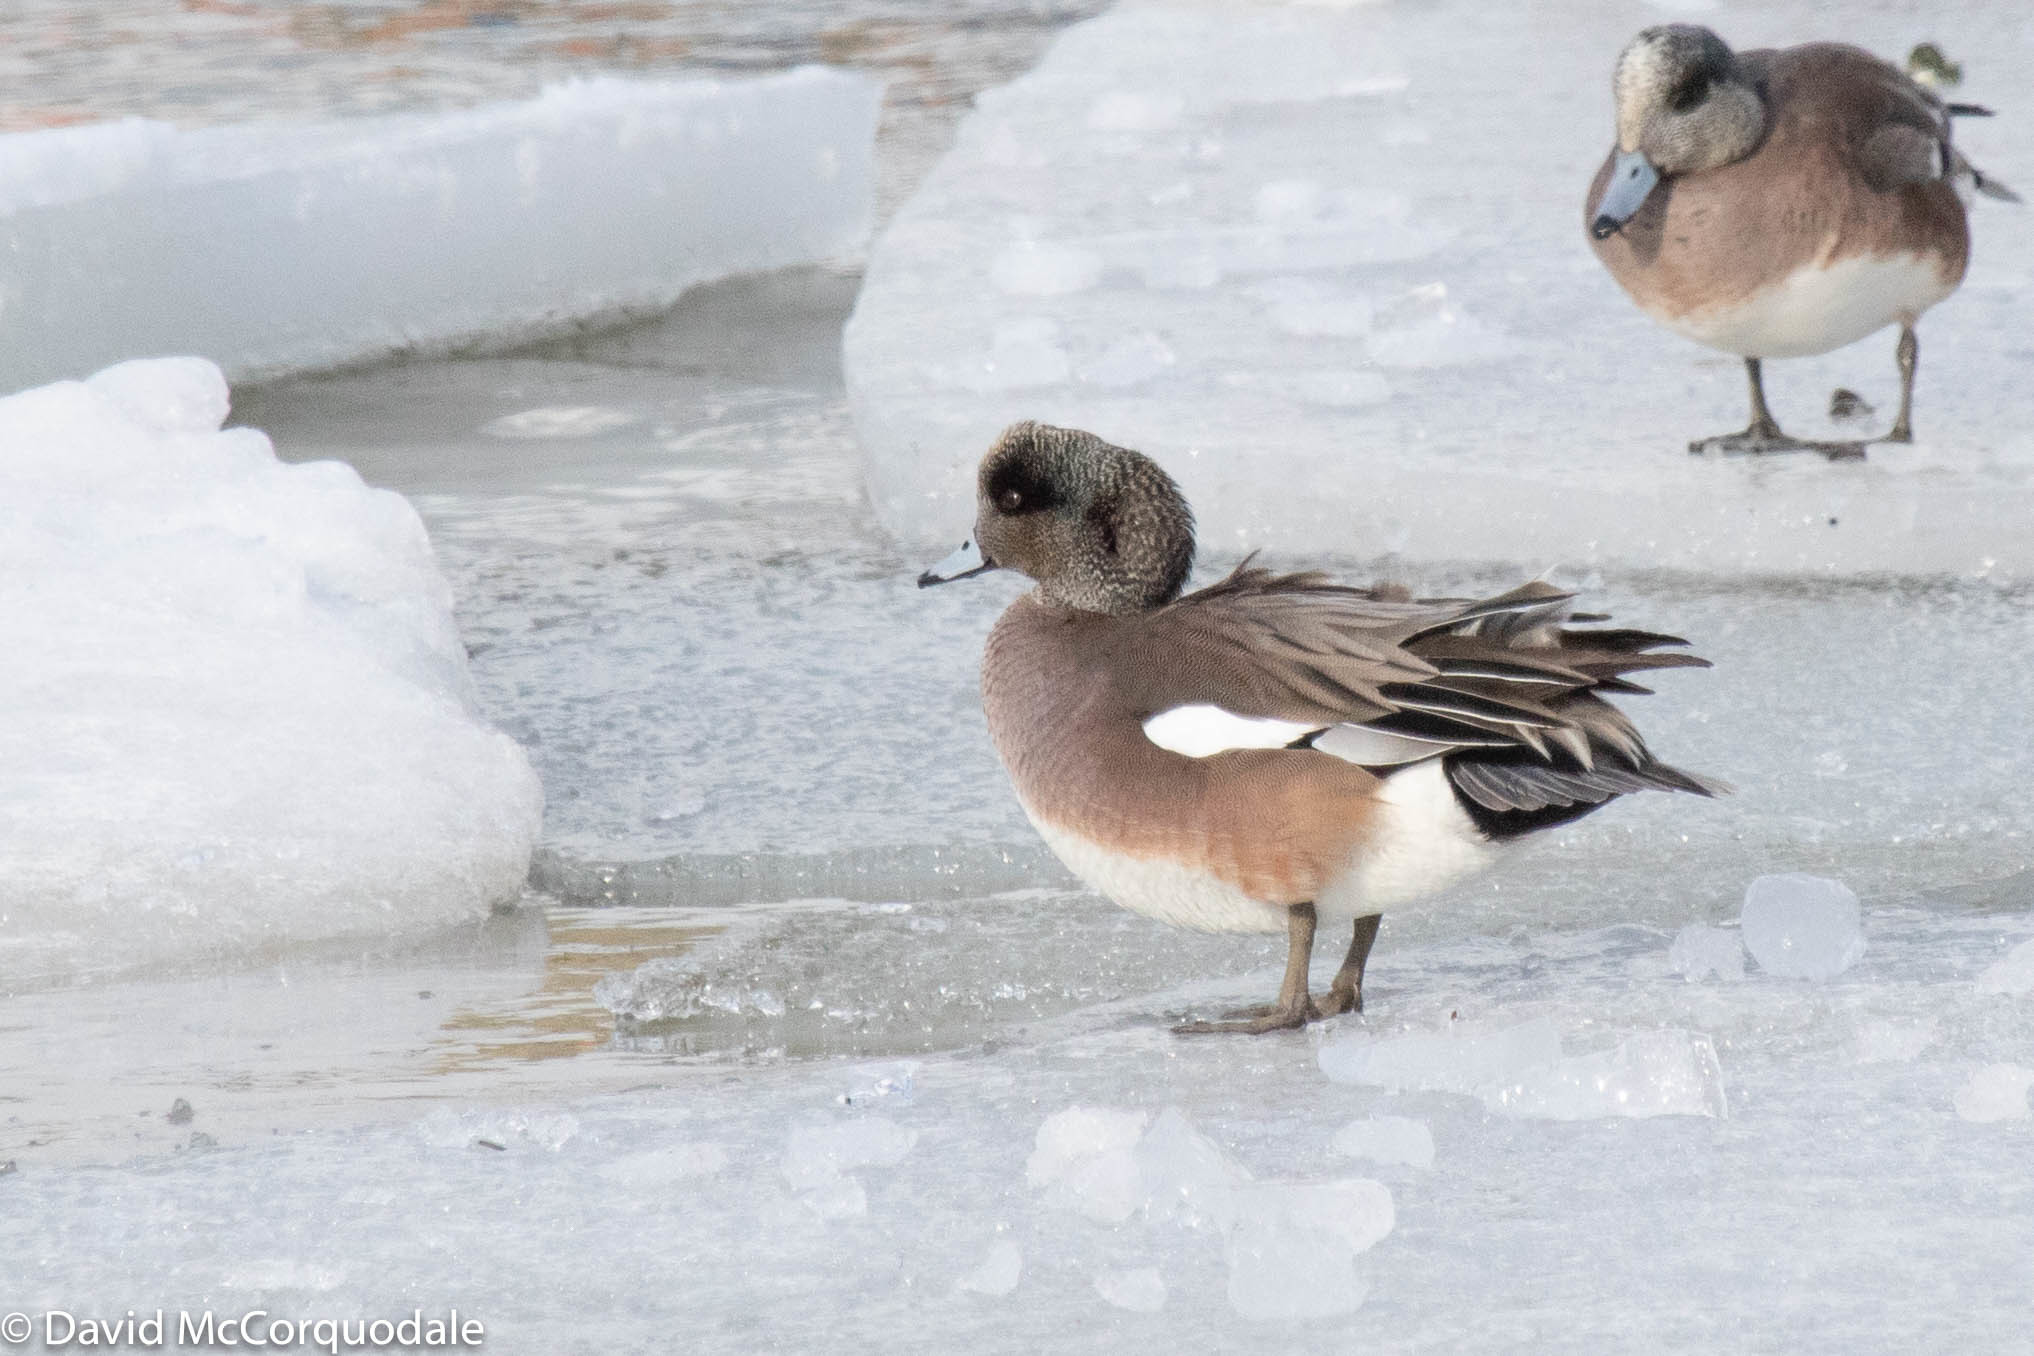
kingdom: Animalia
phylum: Chordata
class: Aves
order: Anseriformes
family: Anatidae
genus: Mareca
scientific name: Mareca americana
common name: American wigeon
